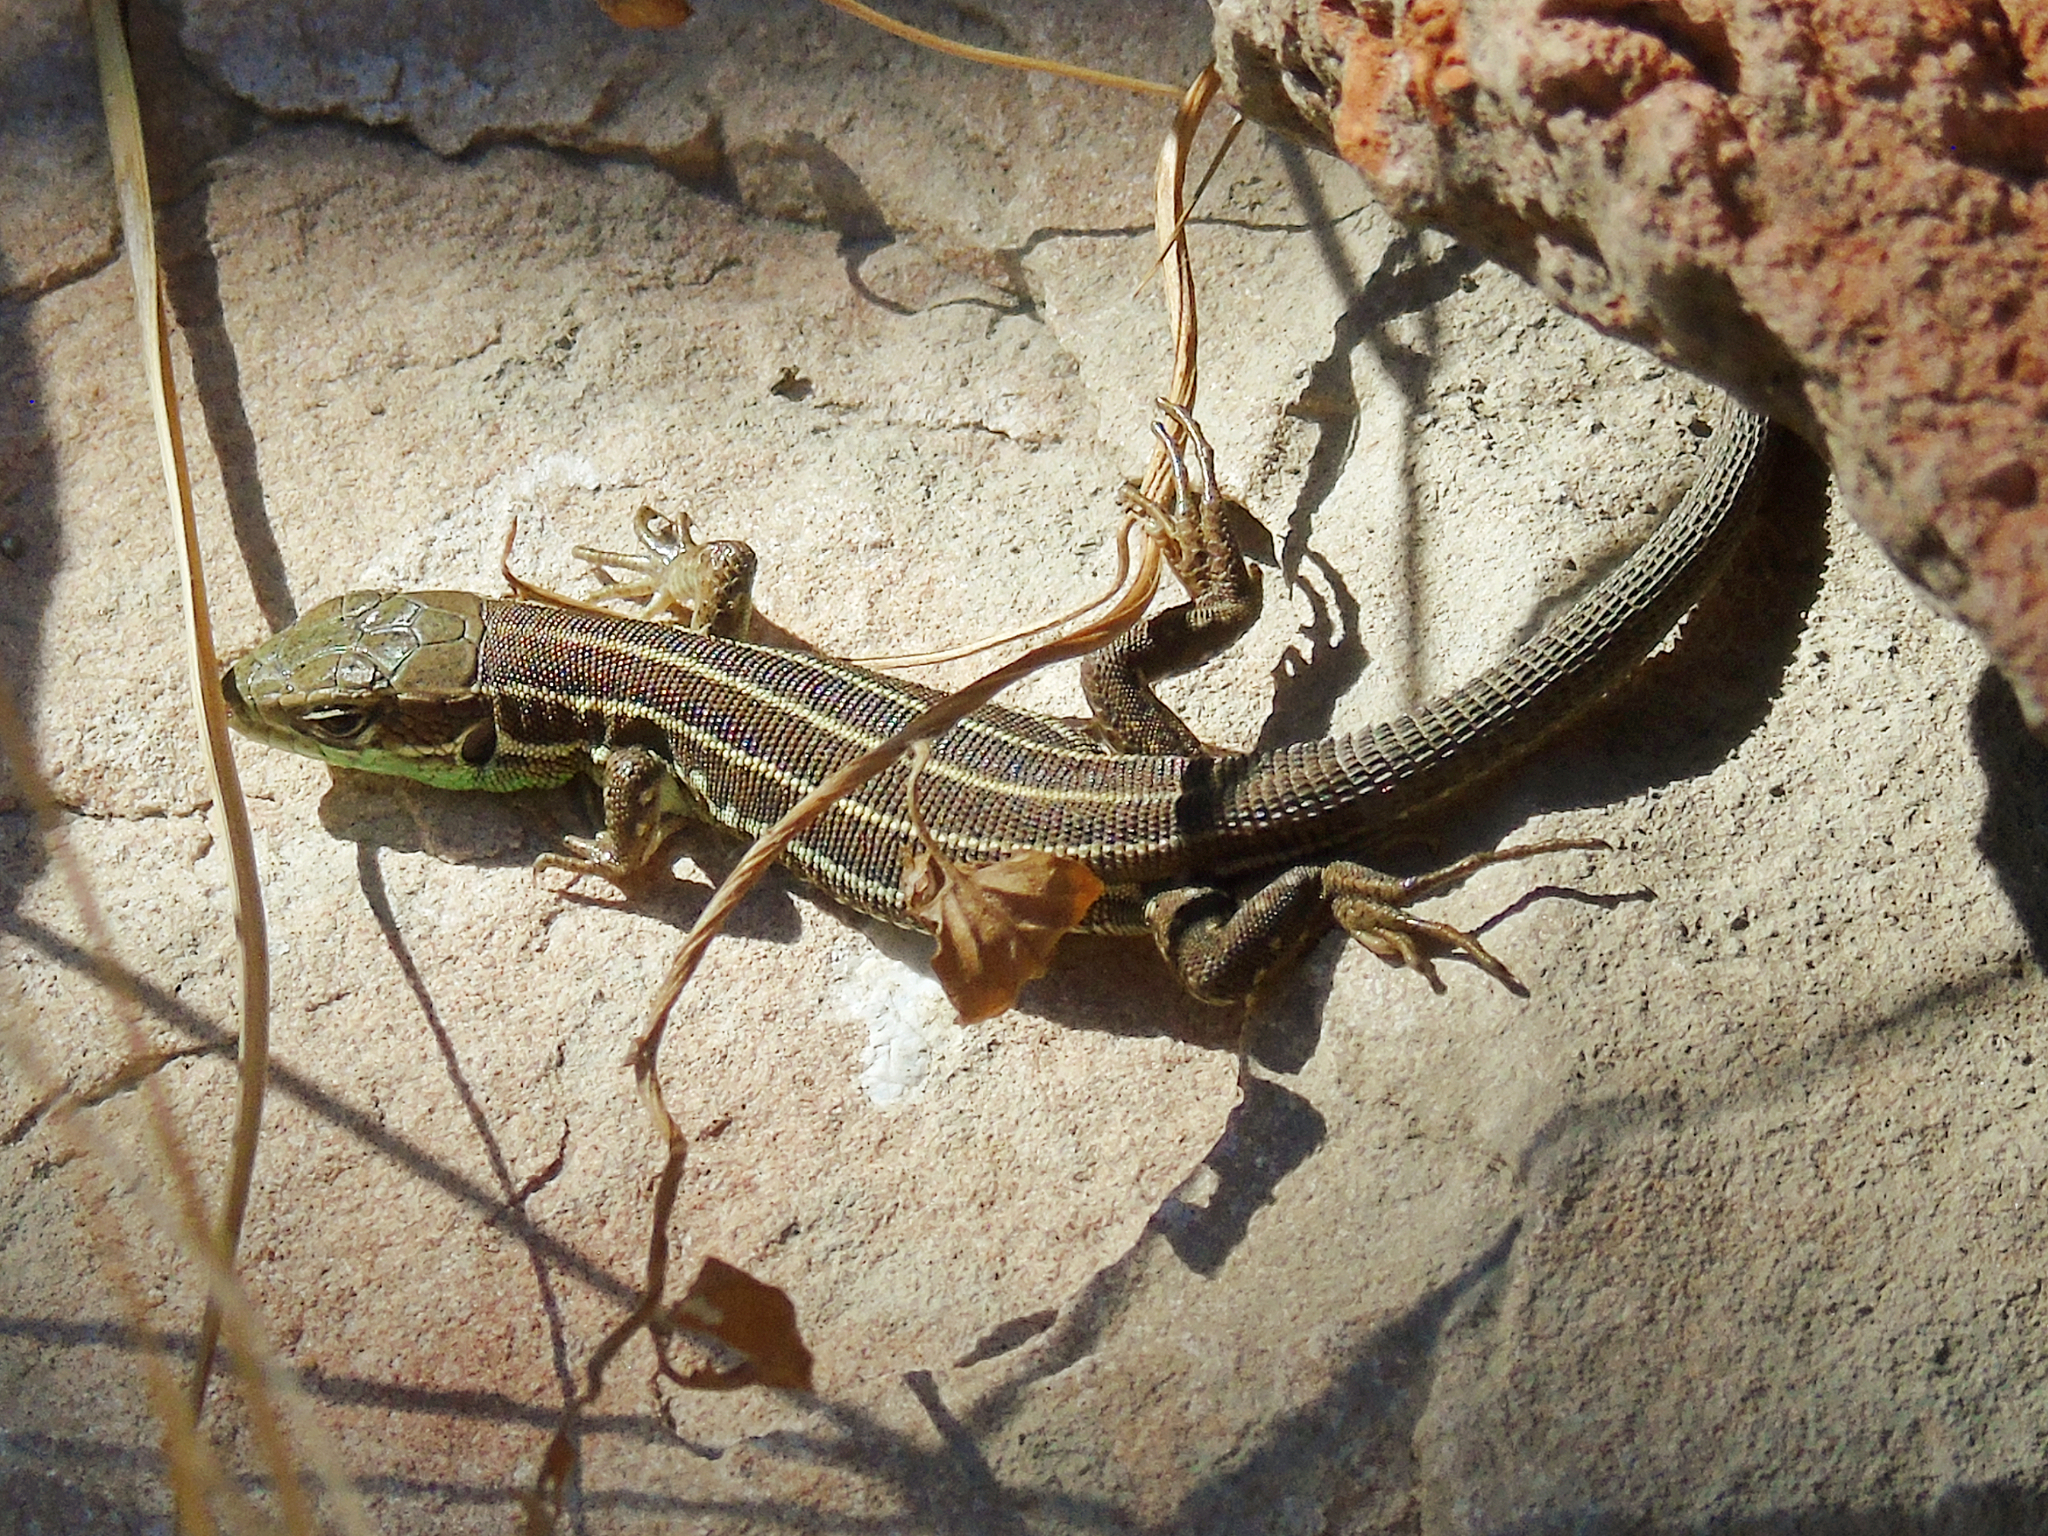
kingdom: Animalia
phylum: Chordata
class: Squamata
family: Lacertidae
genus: Lacerta
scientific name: Lacerta strigata
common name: Caspian green lizard
